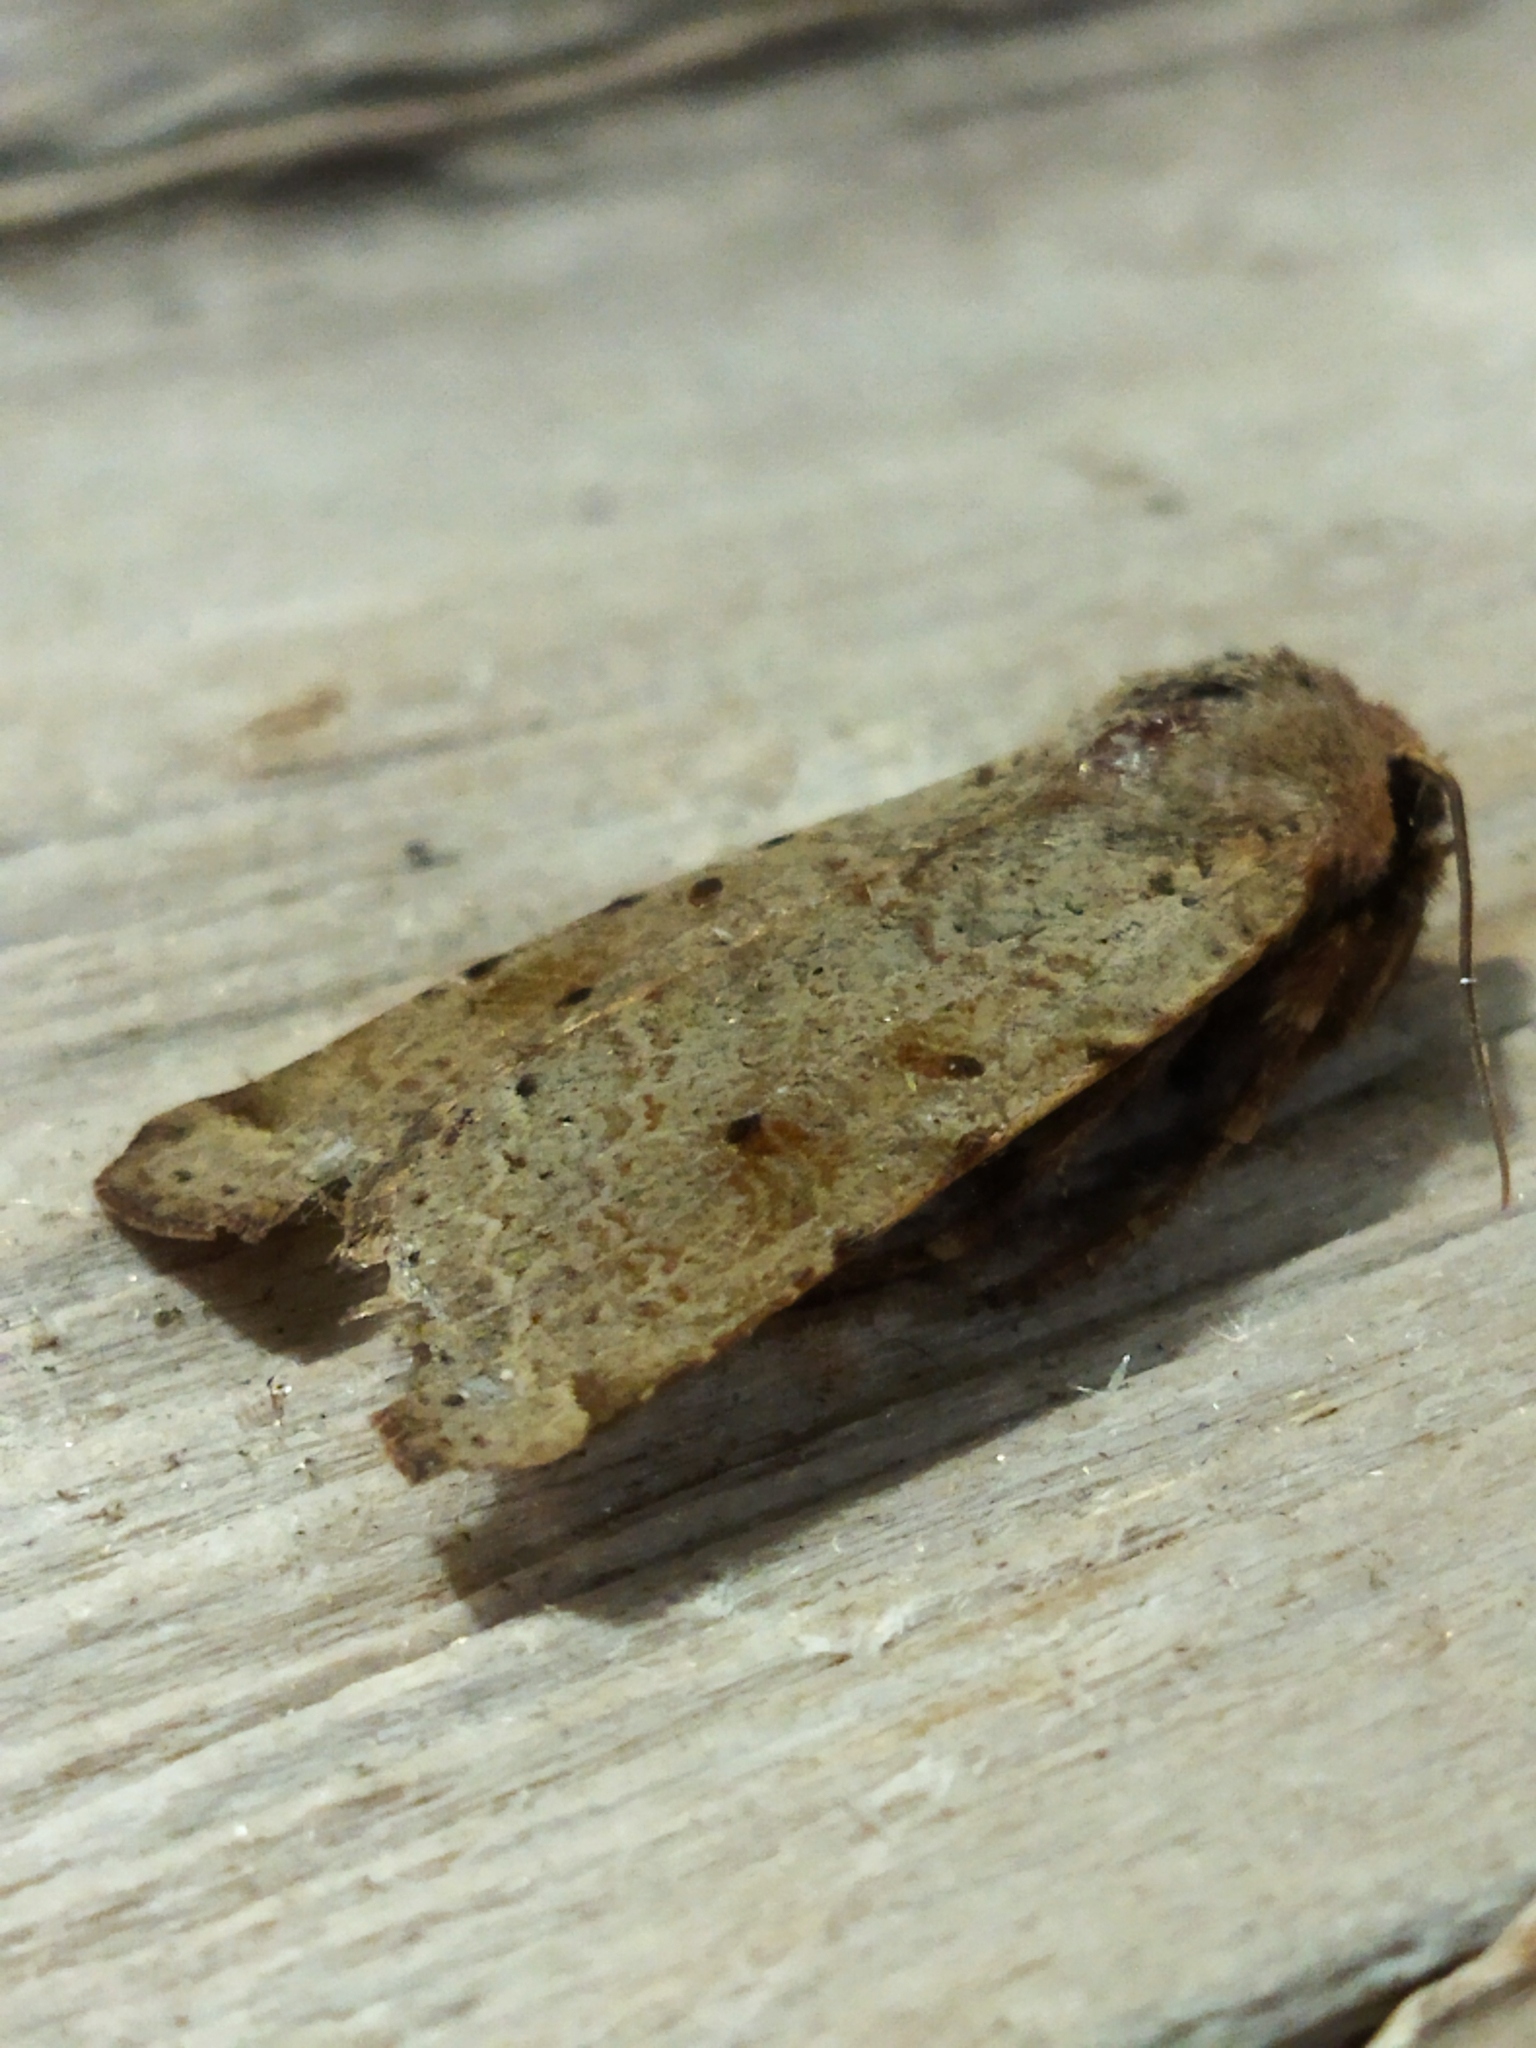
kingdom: Animalia
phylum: Arthropoda
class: Insecta
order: Lepidoptera
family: Noctuidae
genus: Agrochola
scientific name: Agrochola lychnidis
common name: Beaded chestnut
